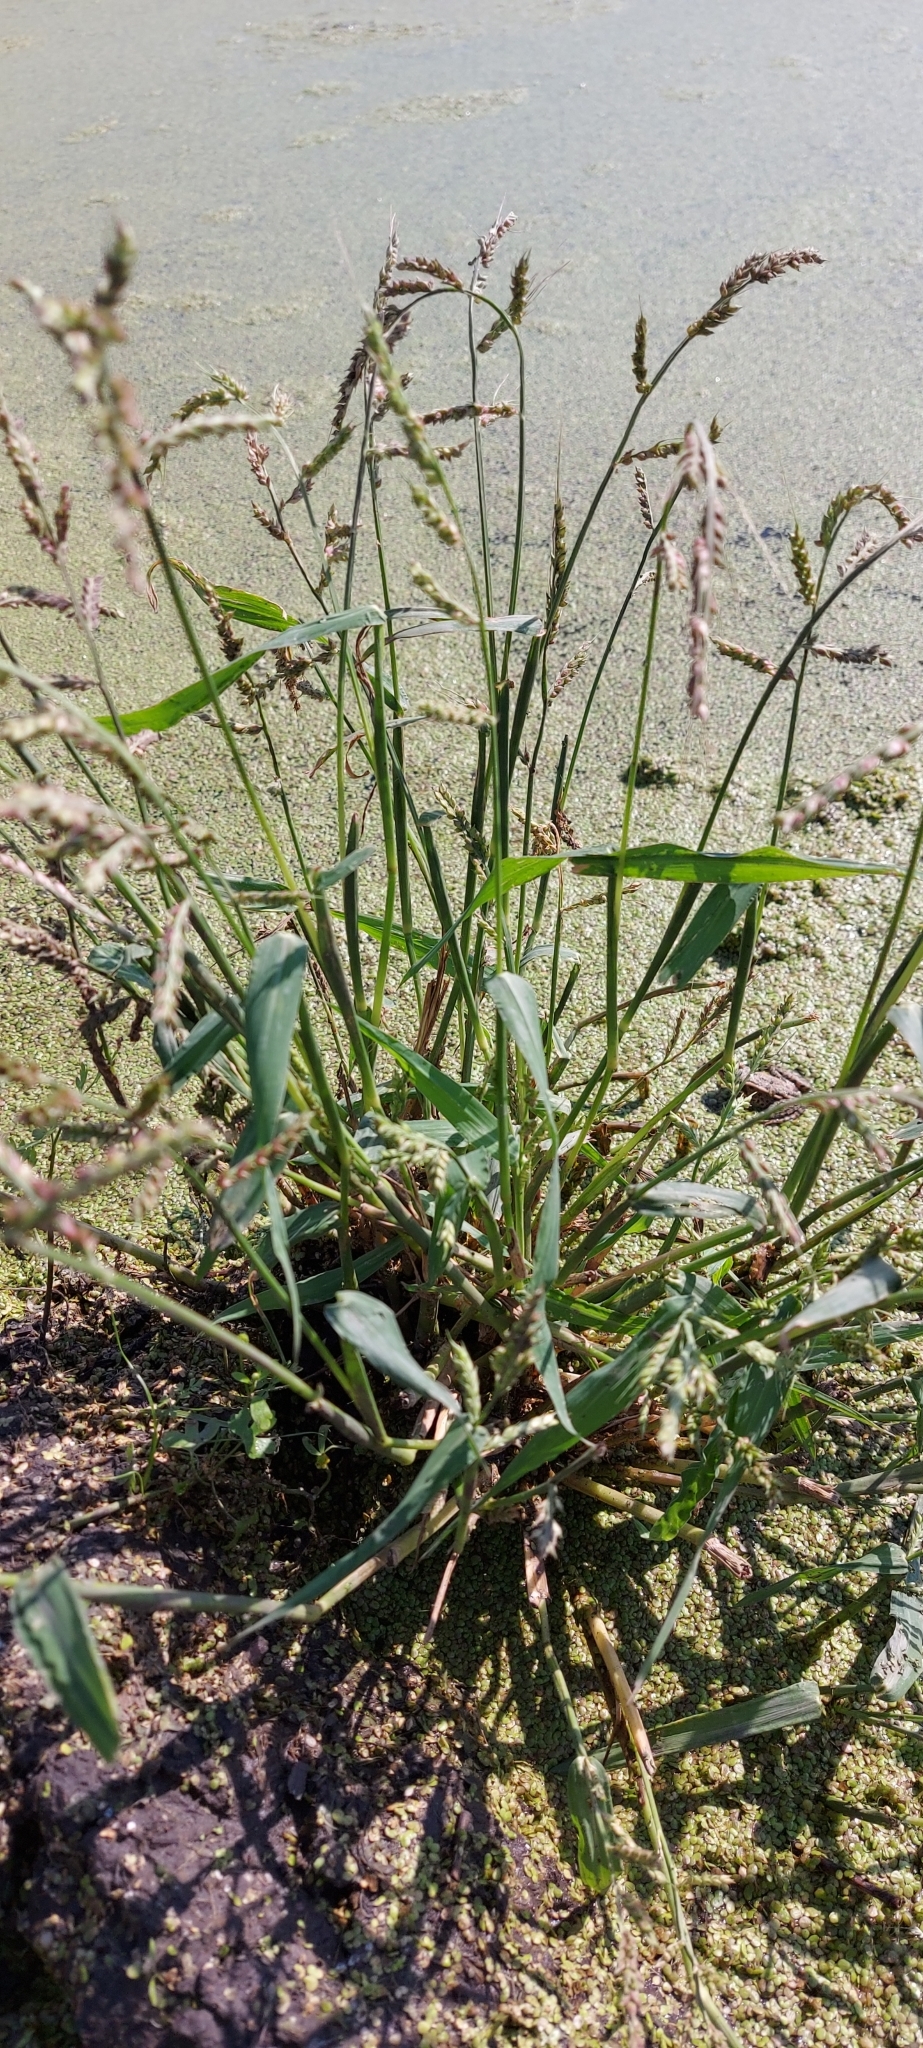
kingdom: Plantae
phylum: Tracheophyta
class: Liliopsida
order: Poales
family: Poaceae
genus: Echinochloa
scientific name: Echinochloa crus-galli
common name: Cockspur
